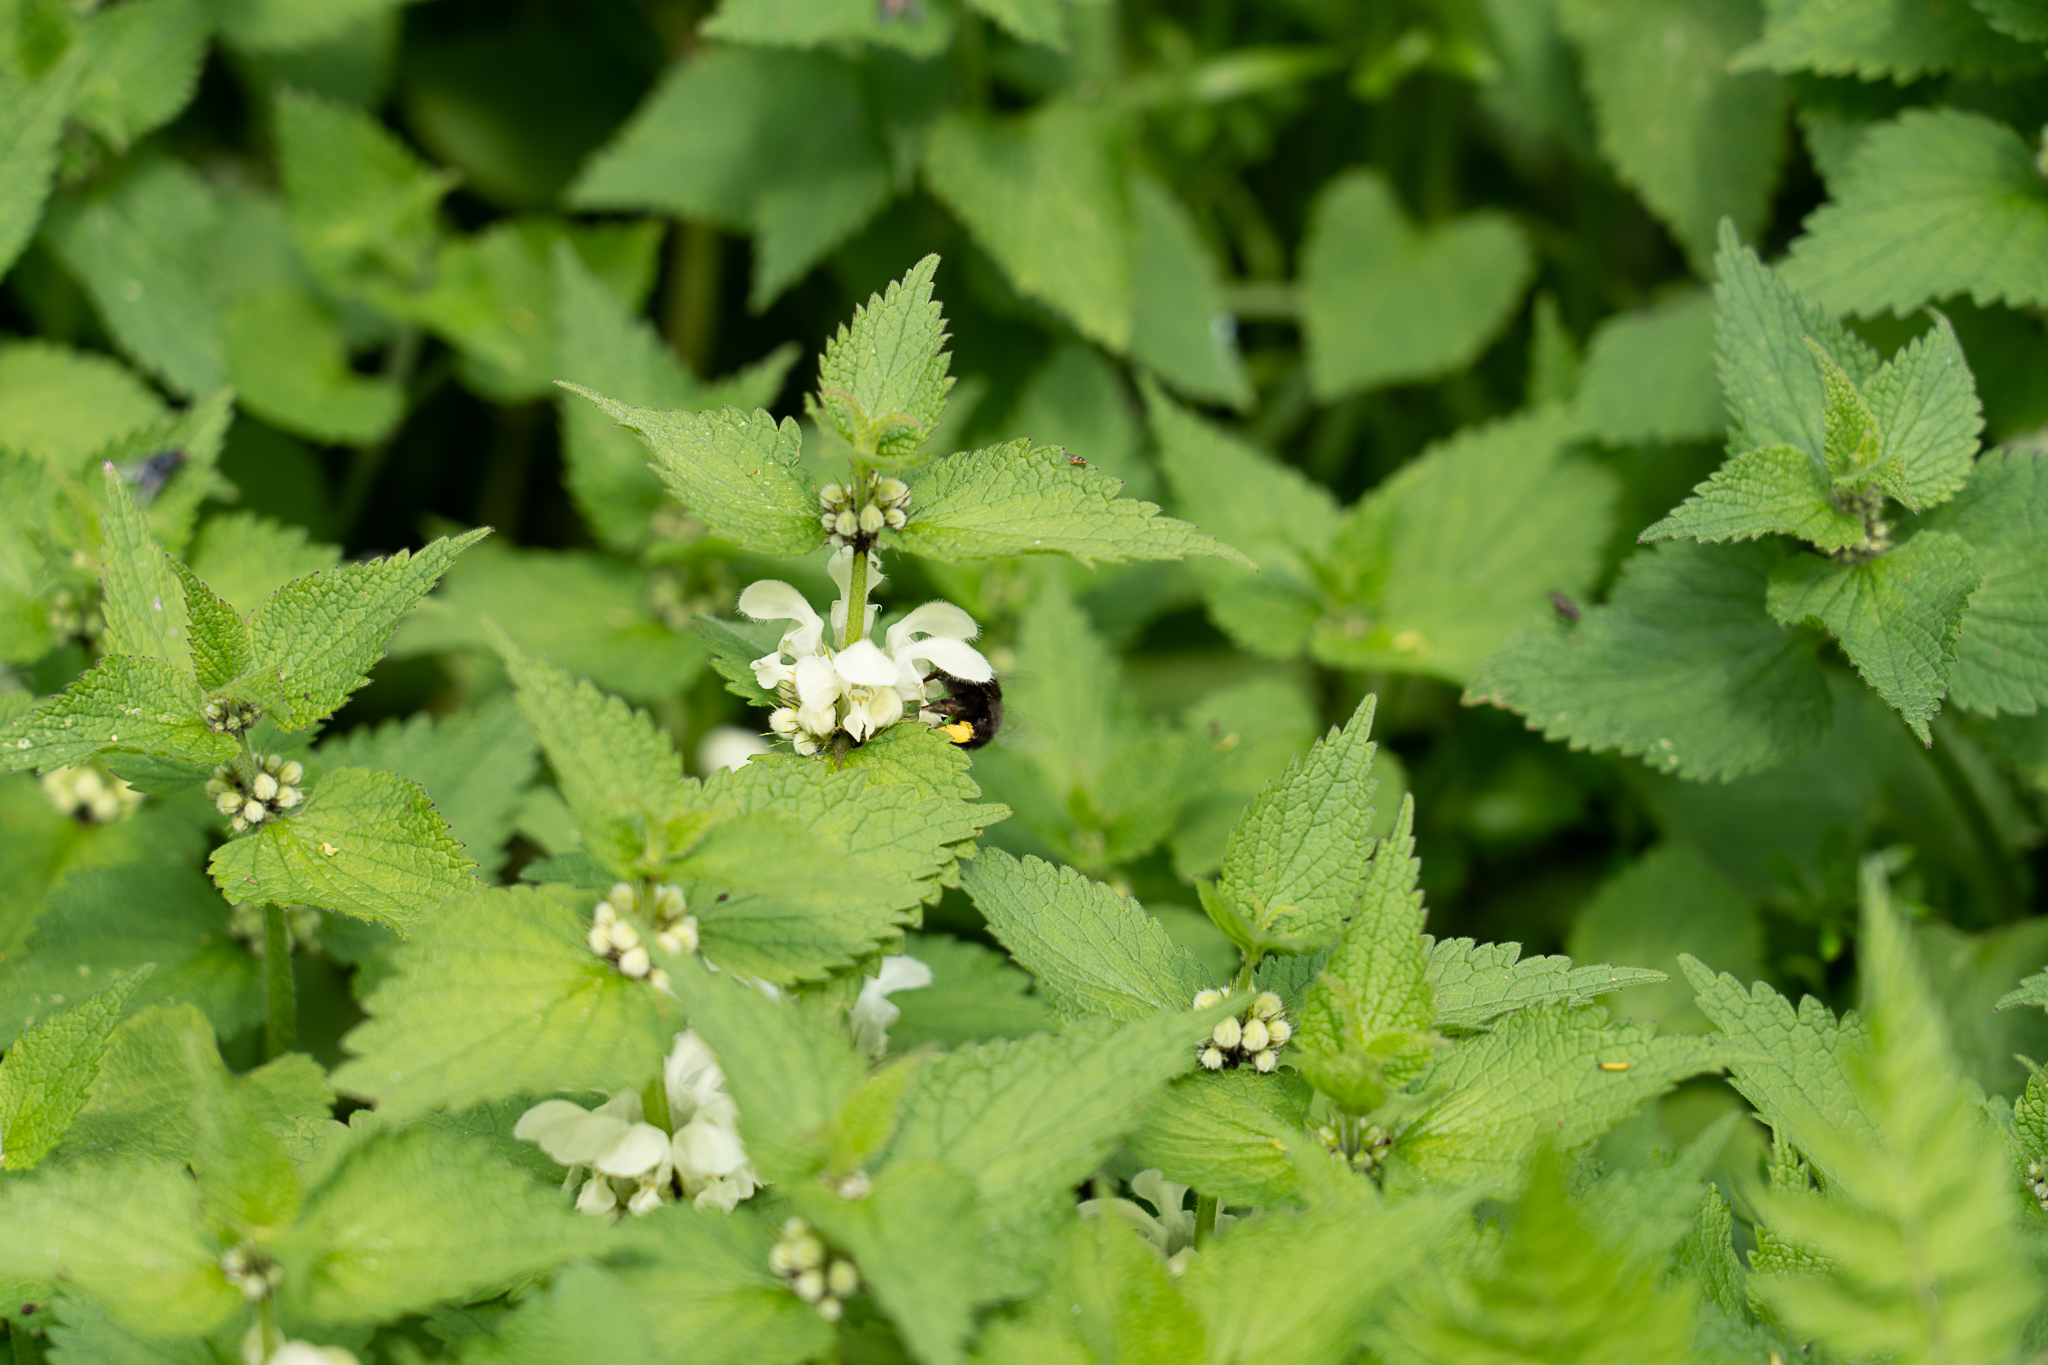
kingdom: Animalia
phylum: Arthropoda
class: Insecta
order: Hymenoptera
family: Apidae
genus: Anthophora
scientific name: Anthophora plumipes
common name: Hairy-footed flower bee
